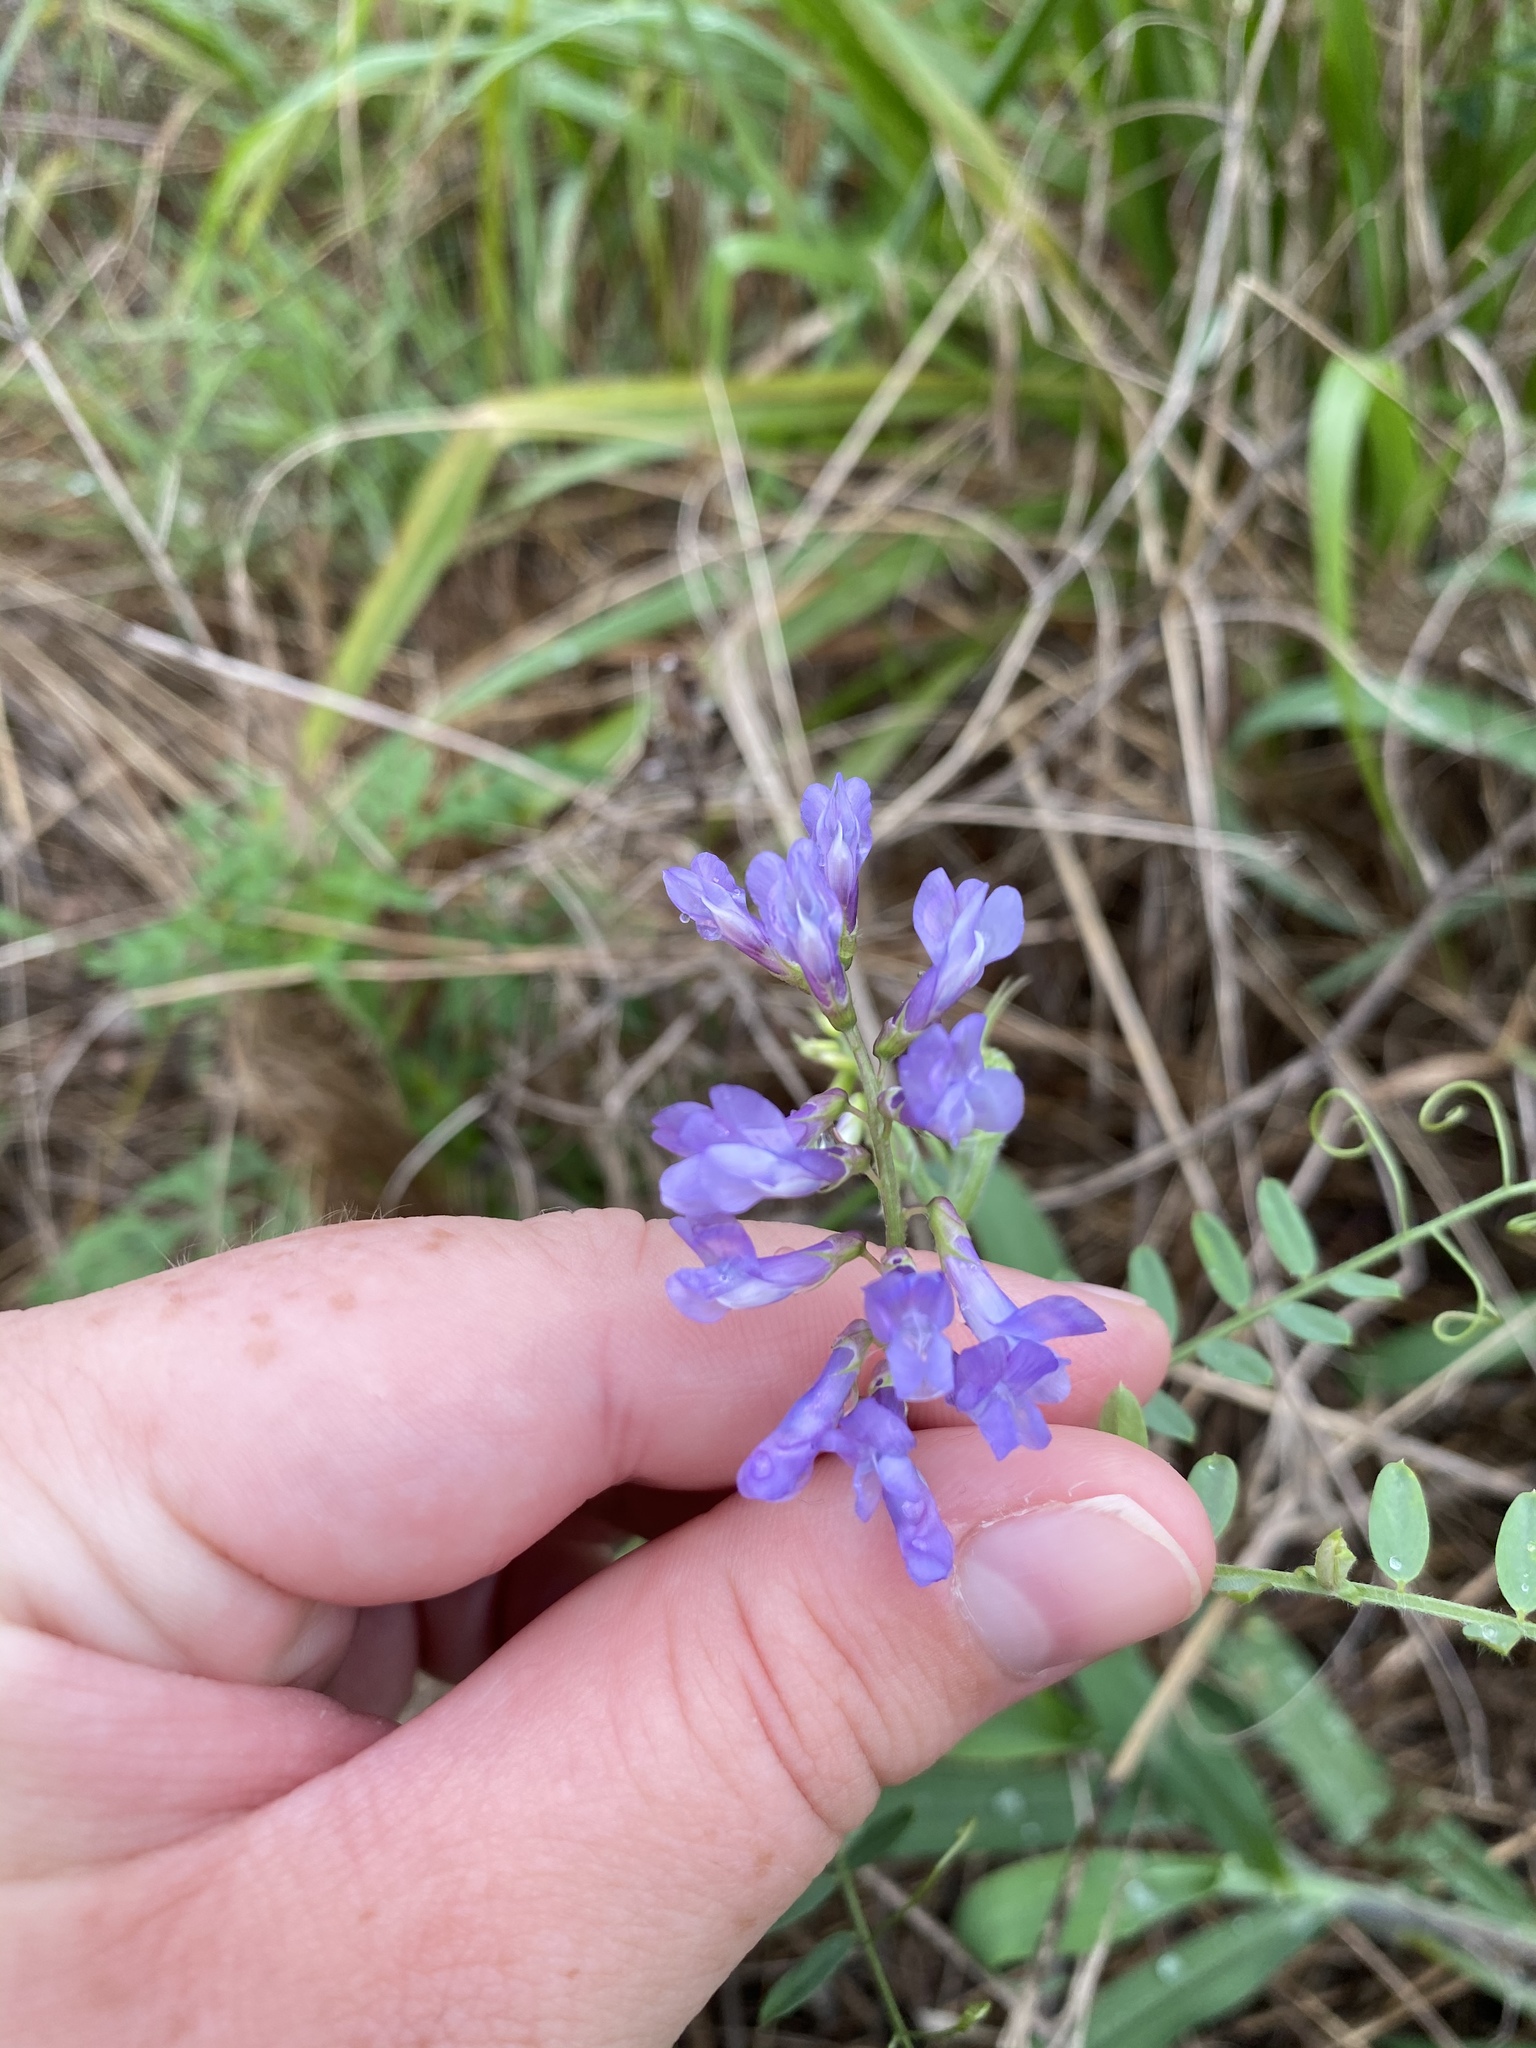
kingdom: Plantae
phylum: Tracheophyta
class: Magnoliopsida
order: Fabales
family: Fabaceae
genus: Vicia
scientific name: Vicia villosa
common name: Fodder vetch
